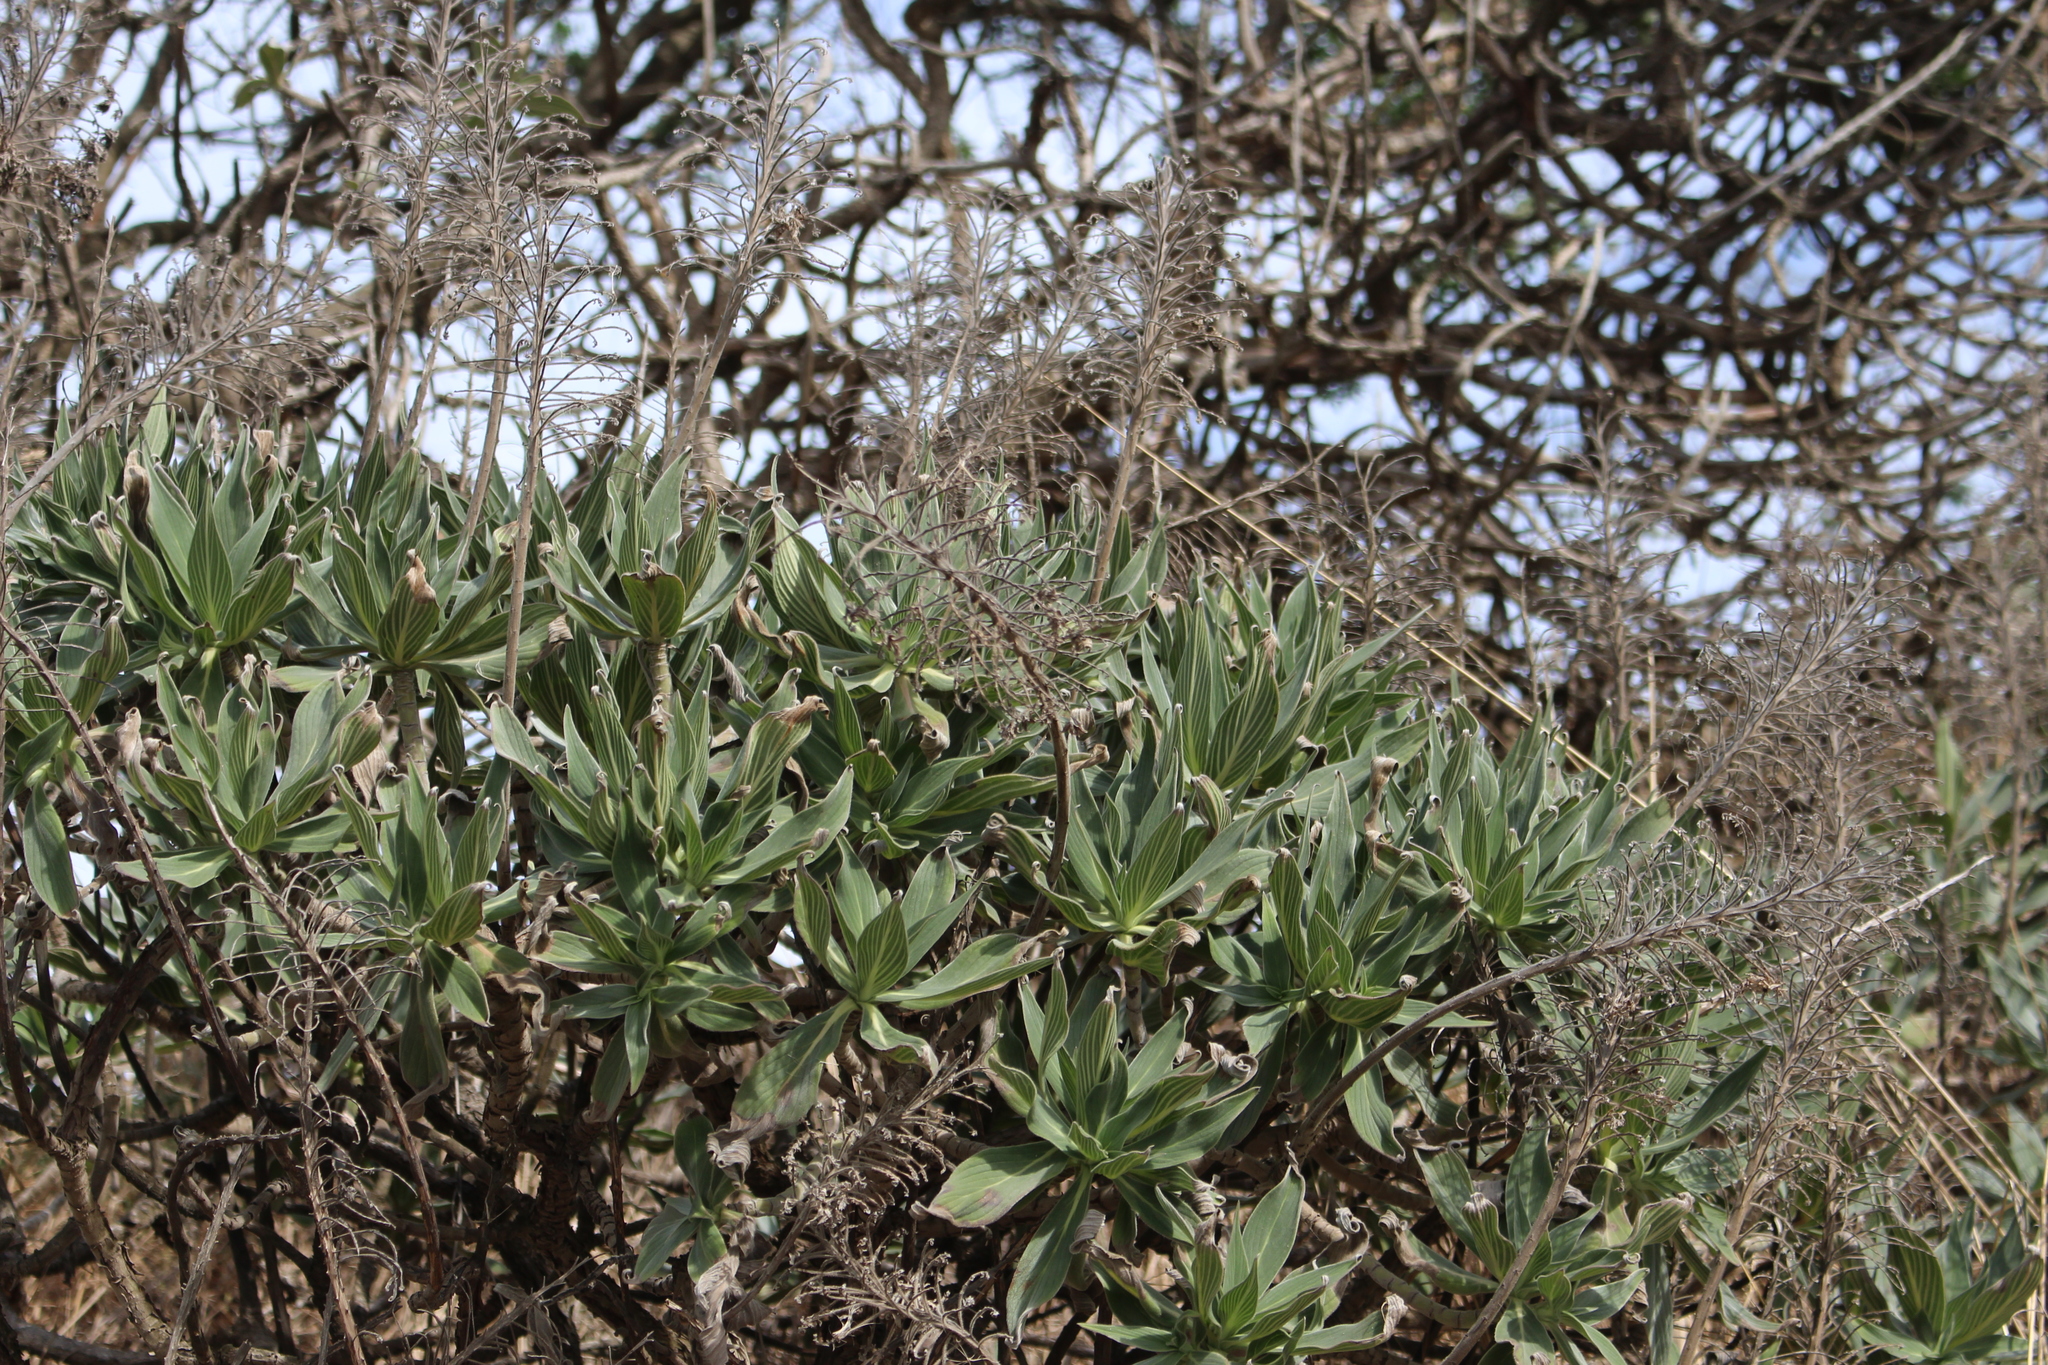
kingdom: Plantae
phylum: Tracheophyta
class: Magnoliopsida
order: Boraginales
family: Boraginaceae
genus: Echium
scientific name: Echium candicans
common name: Pride of madeira
